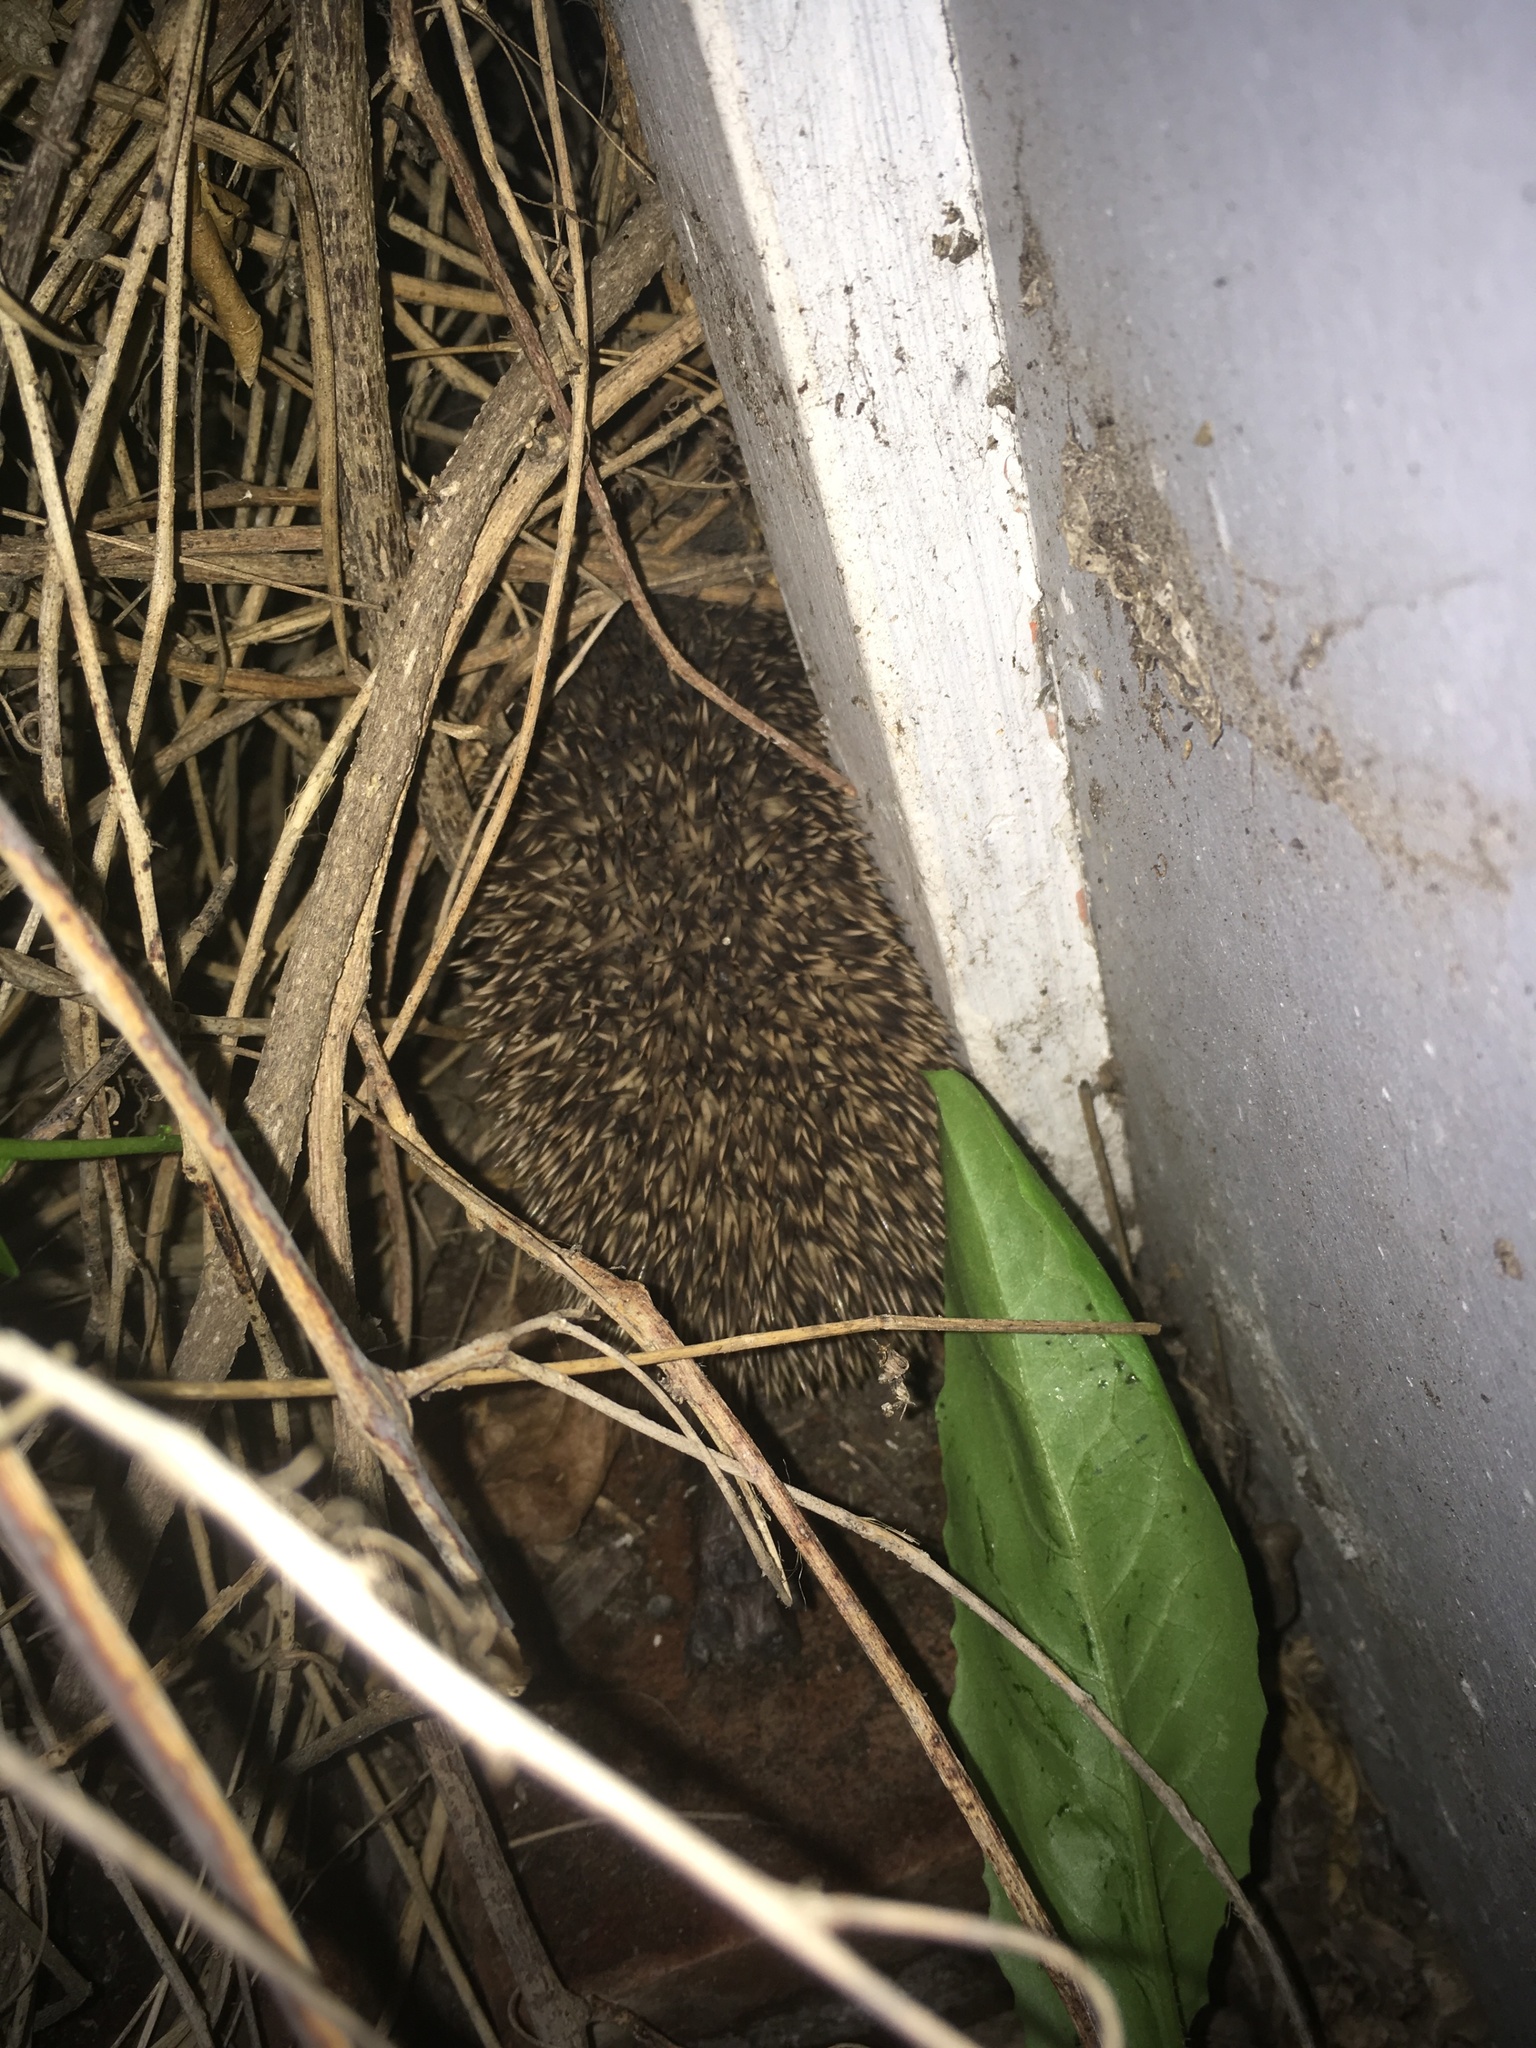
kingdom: Animalia
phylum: Chordata
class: Mammalia
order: Erinaceomorpha
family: Erinaceidae
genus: Erinaceus
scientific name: Erinaceus europaeus
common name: West european hedgehog
